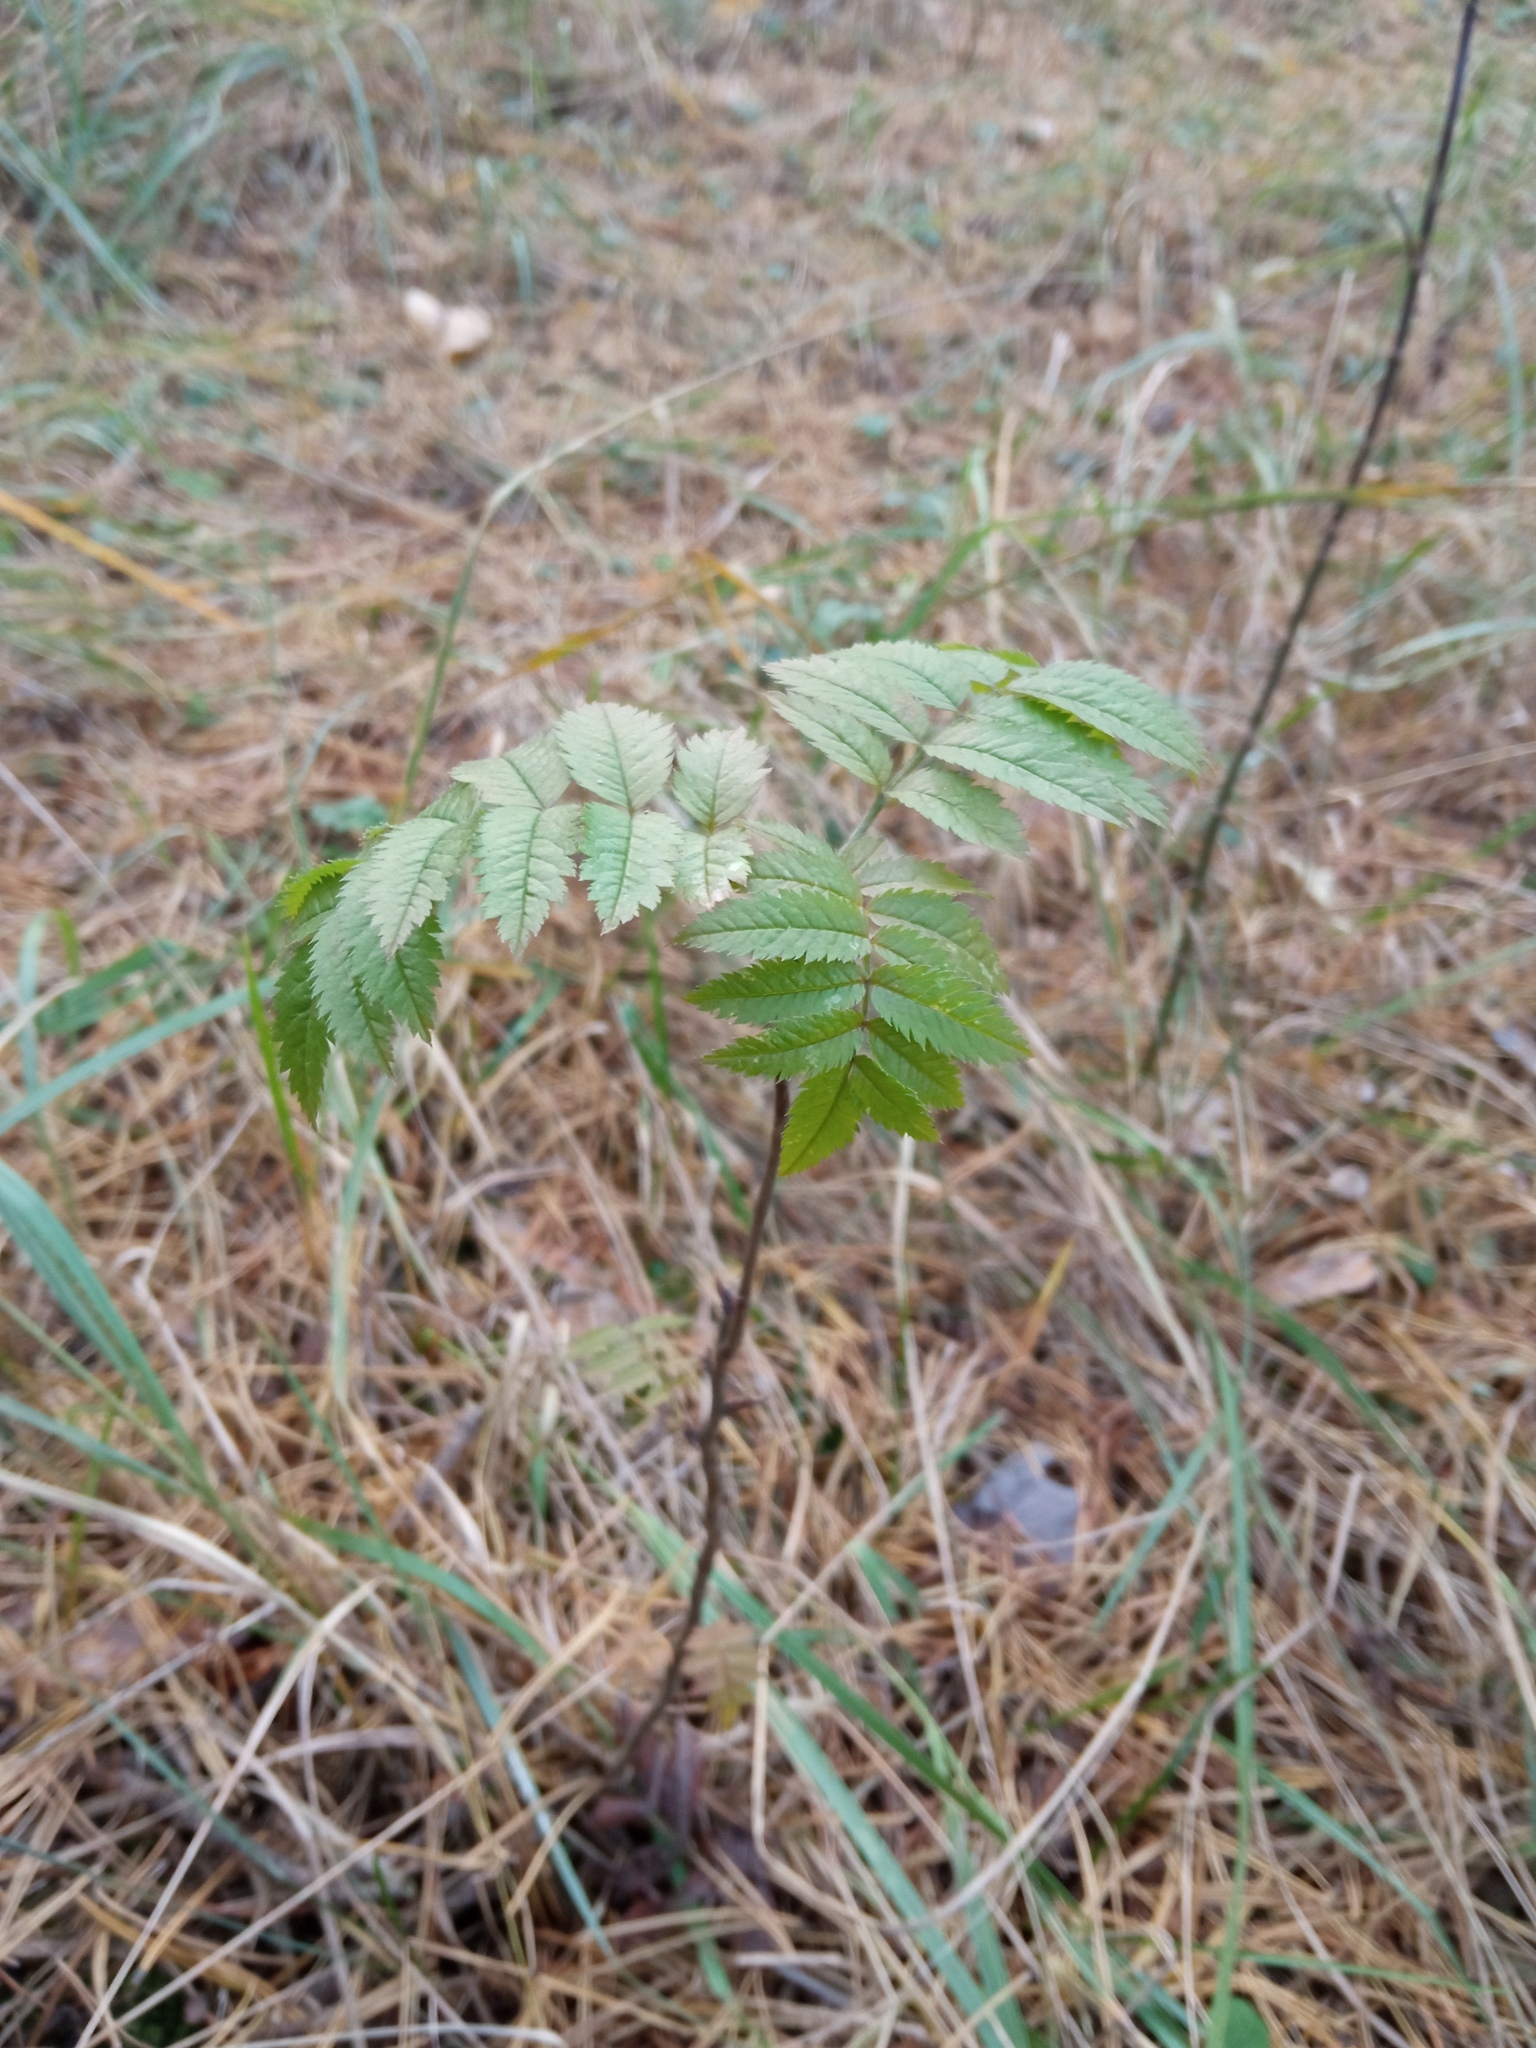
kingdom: Plantae
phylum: Tracheophyta
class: Magnoliopsida
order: Rosales
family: Rosaceae
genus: Sorbus
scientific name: Sorbus aucuparia
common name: Rowan
